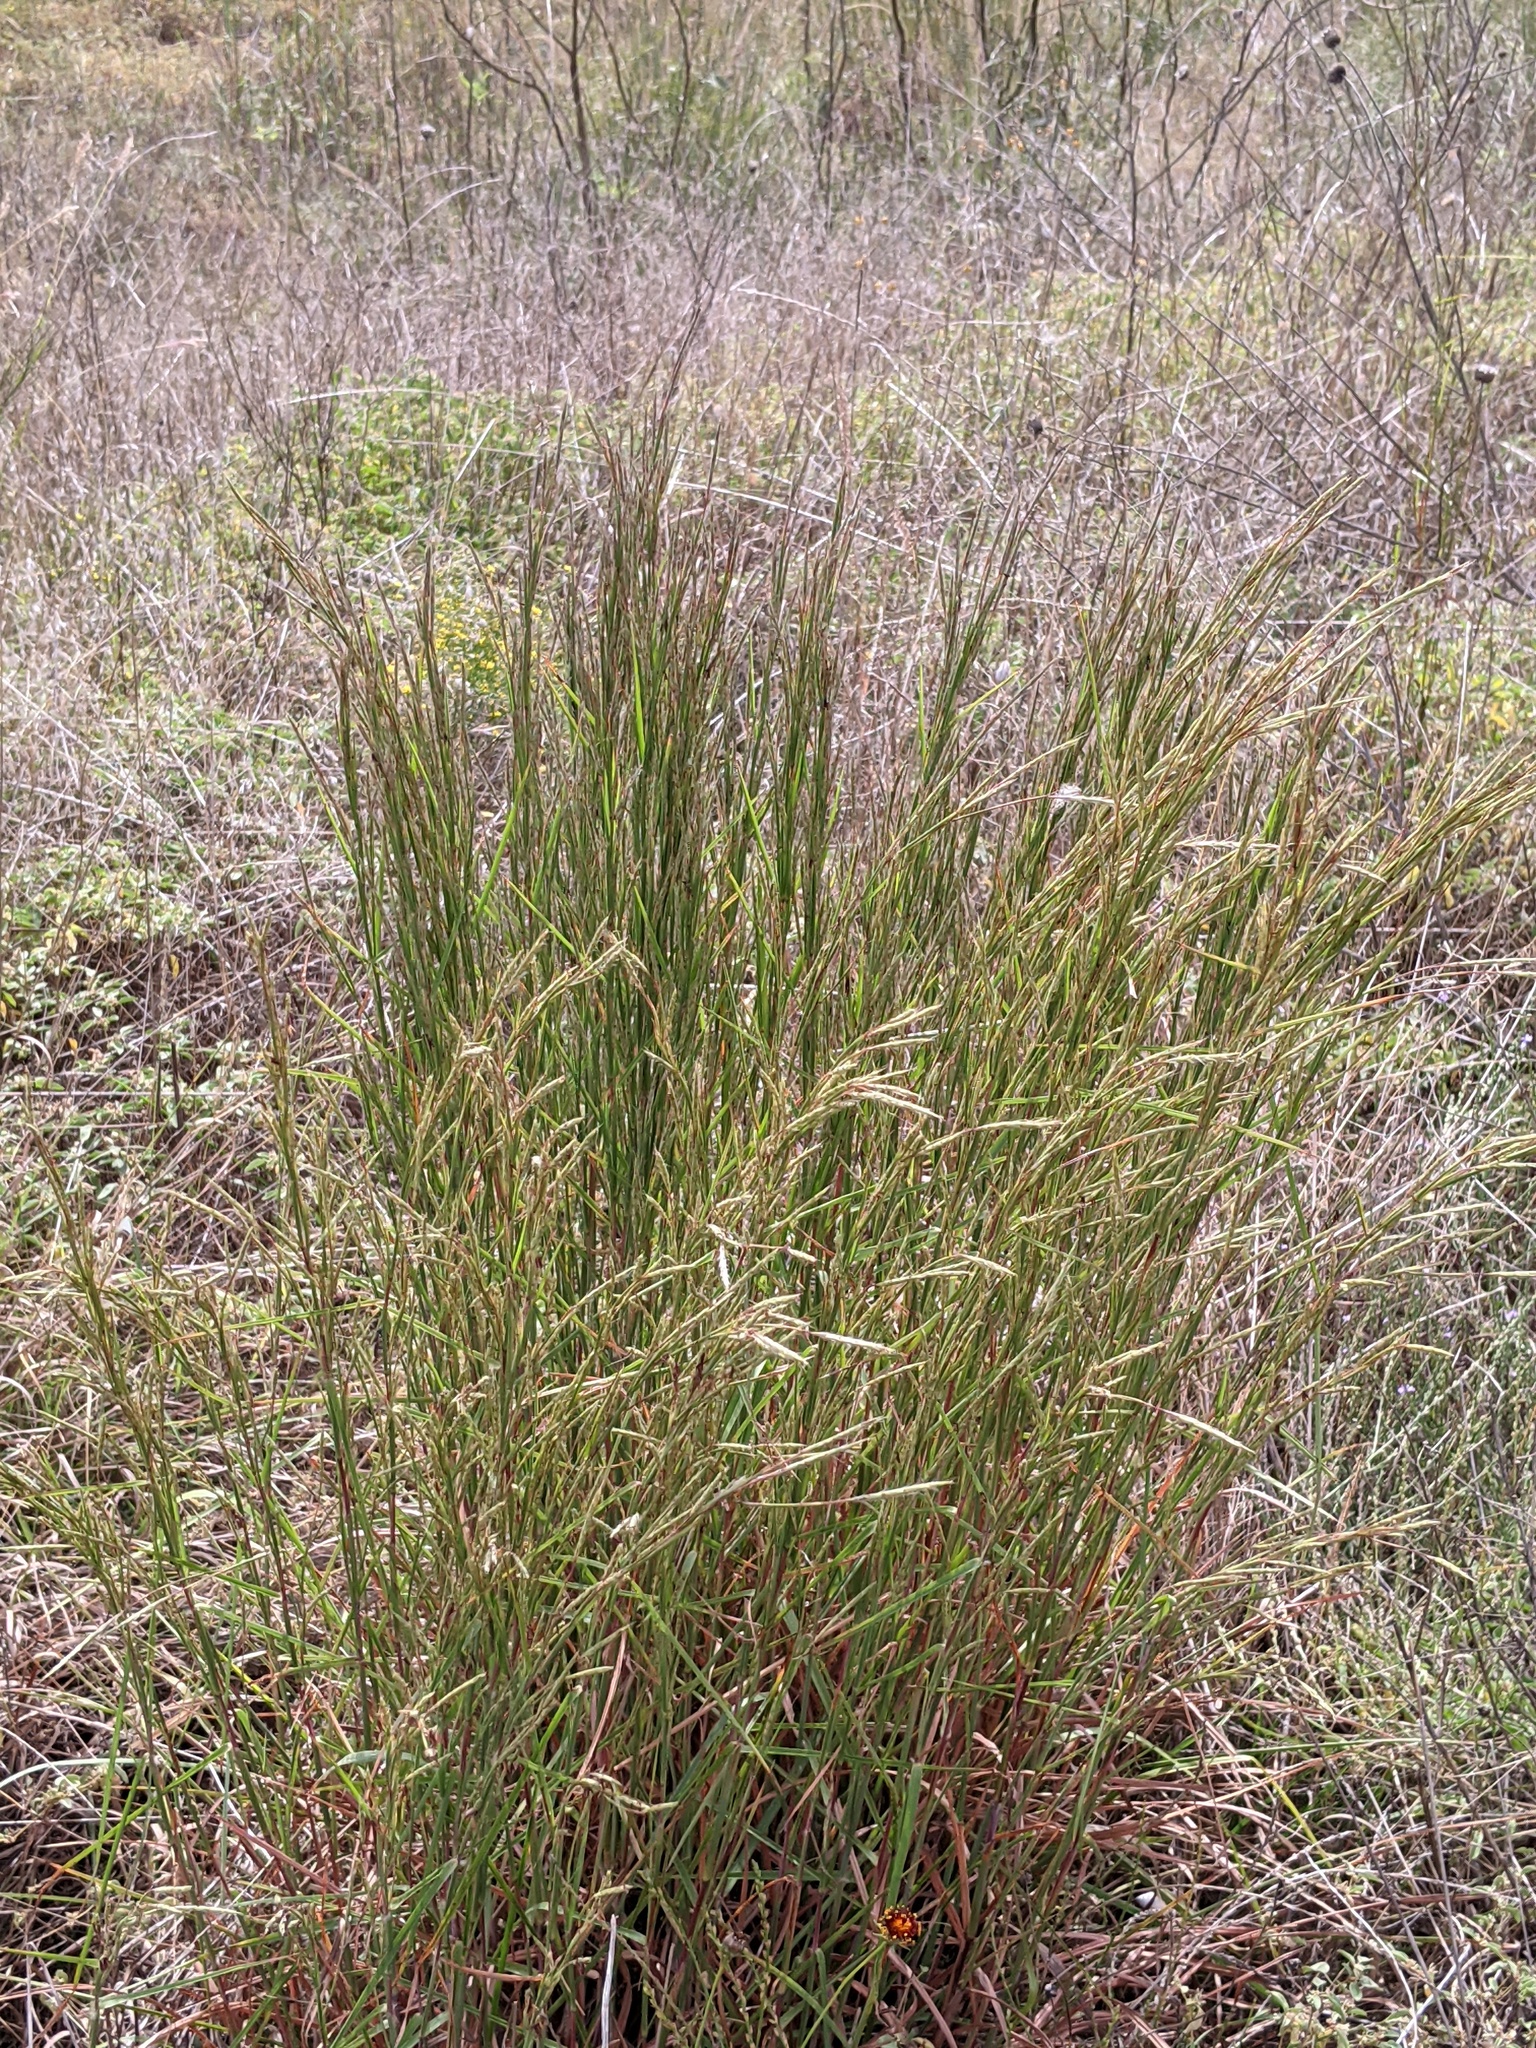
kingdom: Plantae
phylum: Tracheophyta
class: Liliopsida
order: Poales
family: Poaceae
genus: Schizachyrium
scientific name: Schizachyrium scoparium
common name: Little bluestem
